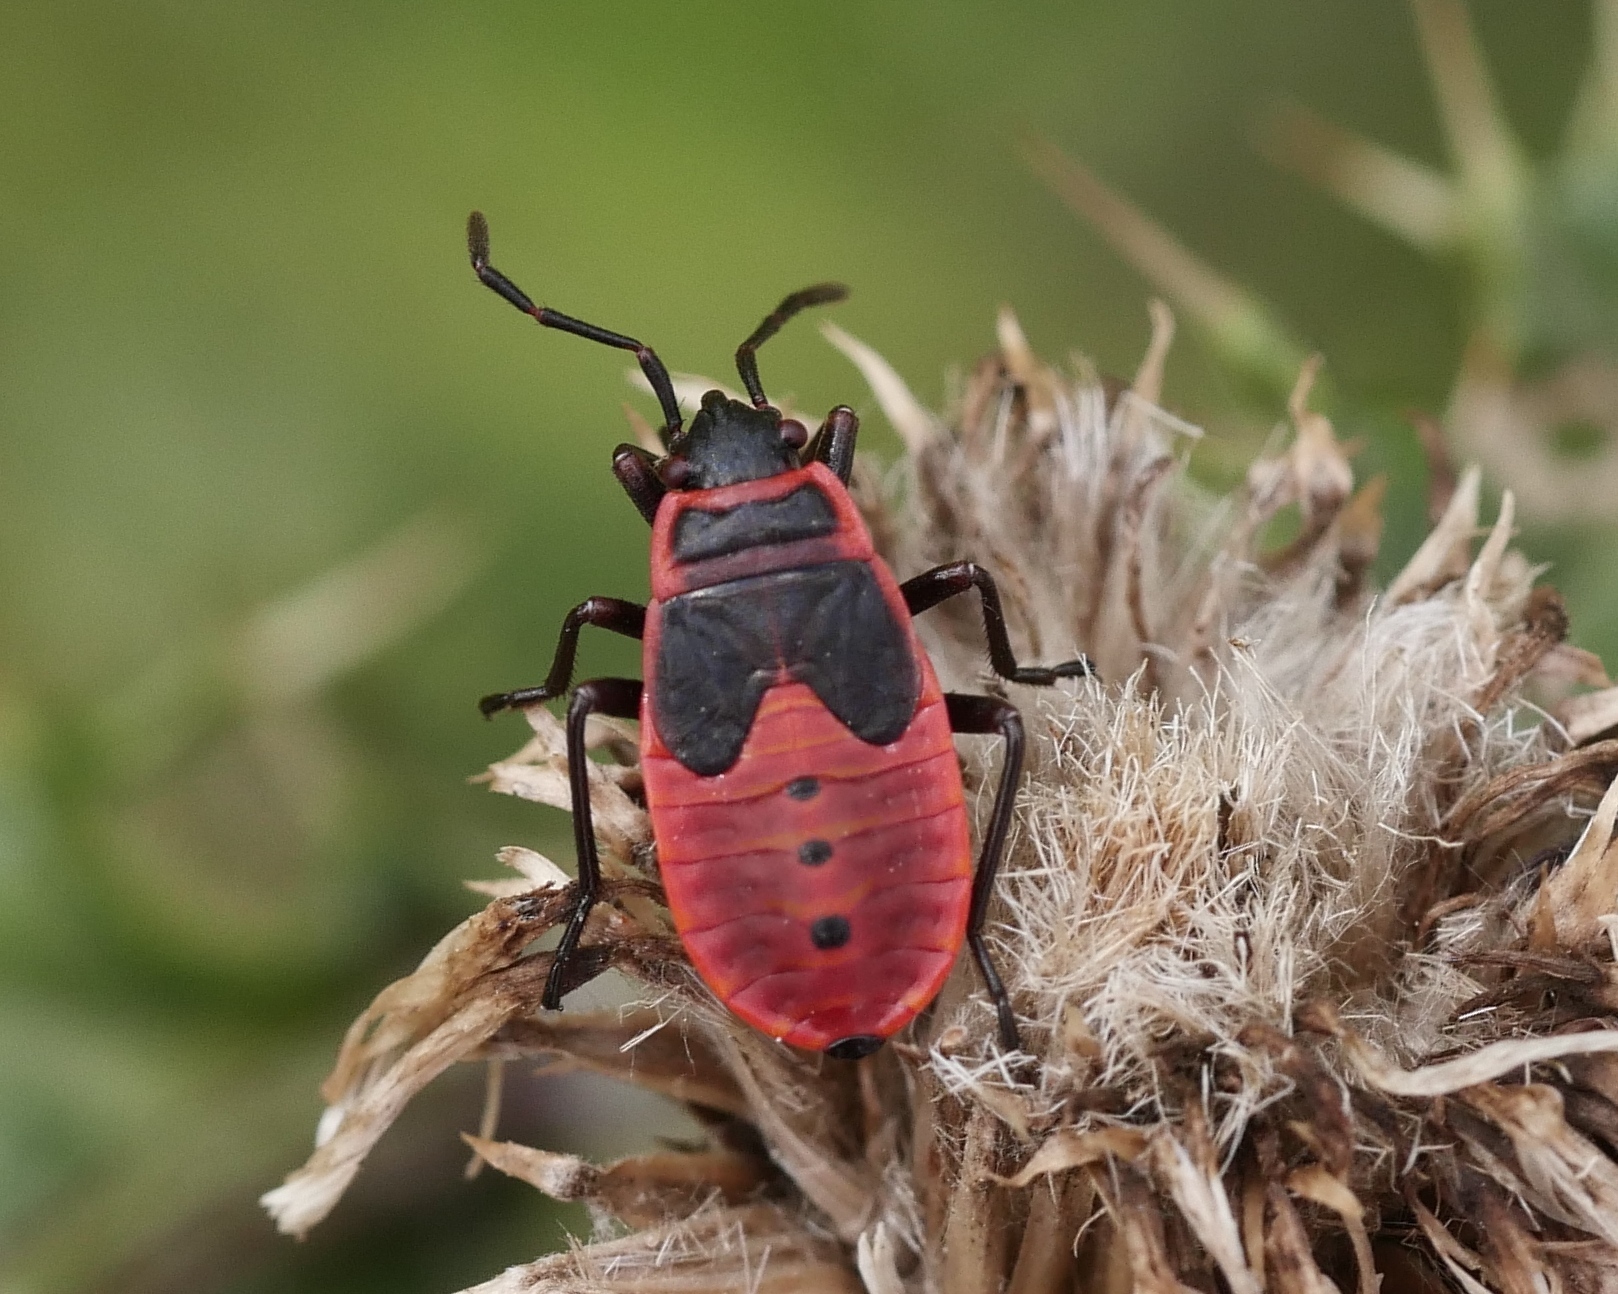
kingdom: Animalia
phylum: Arthropoda
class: Insecta
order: Hemiptera
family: Pyrrhocoridae
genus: Pyrrhocoris
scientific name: Pyrrhocoris apterus
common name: Firebug
